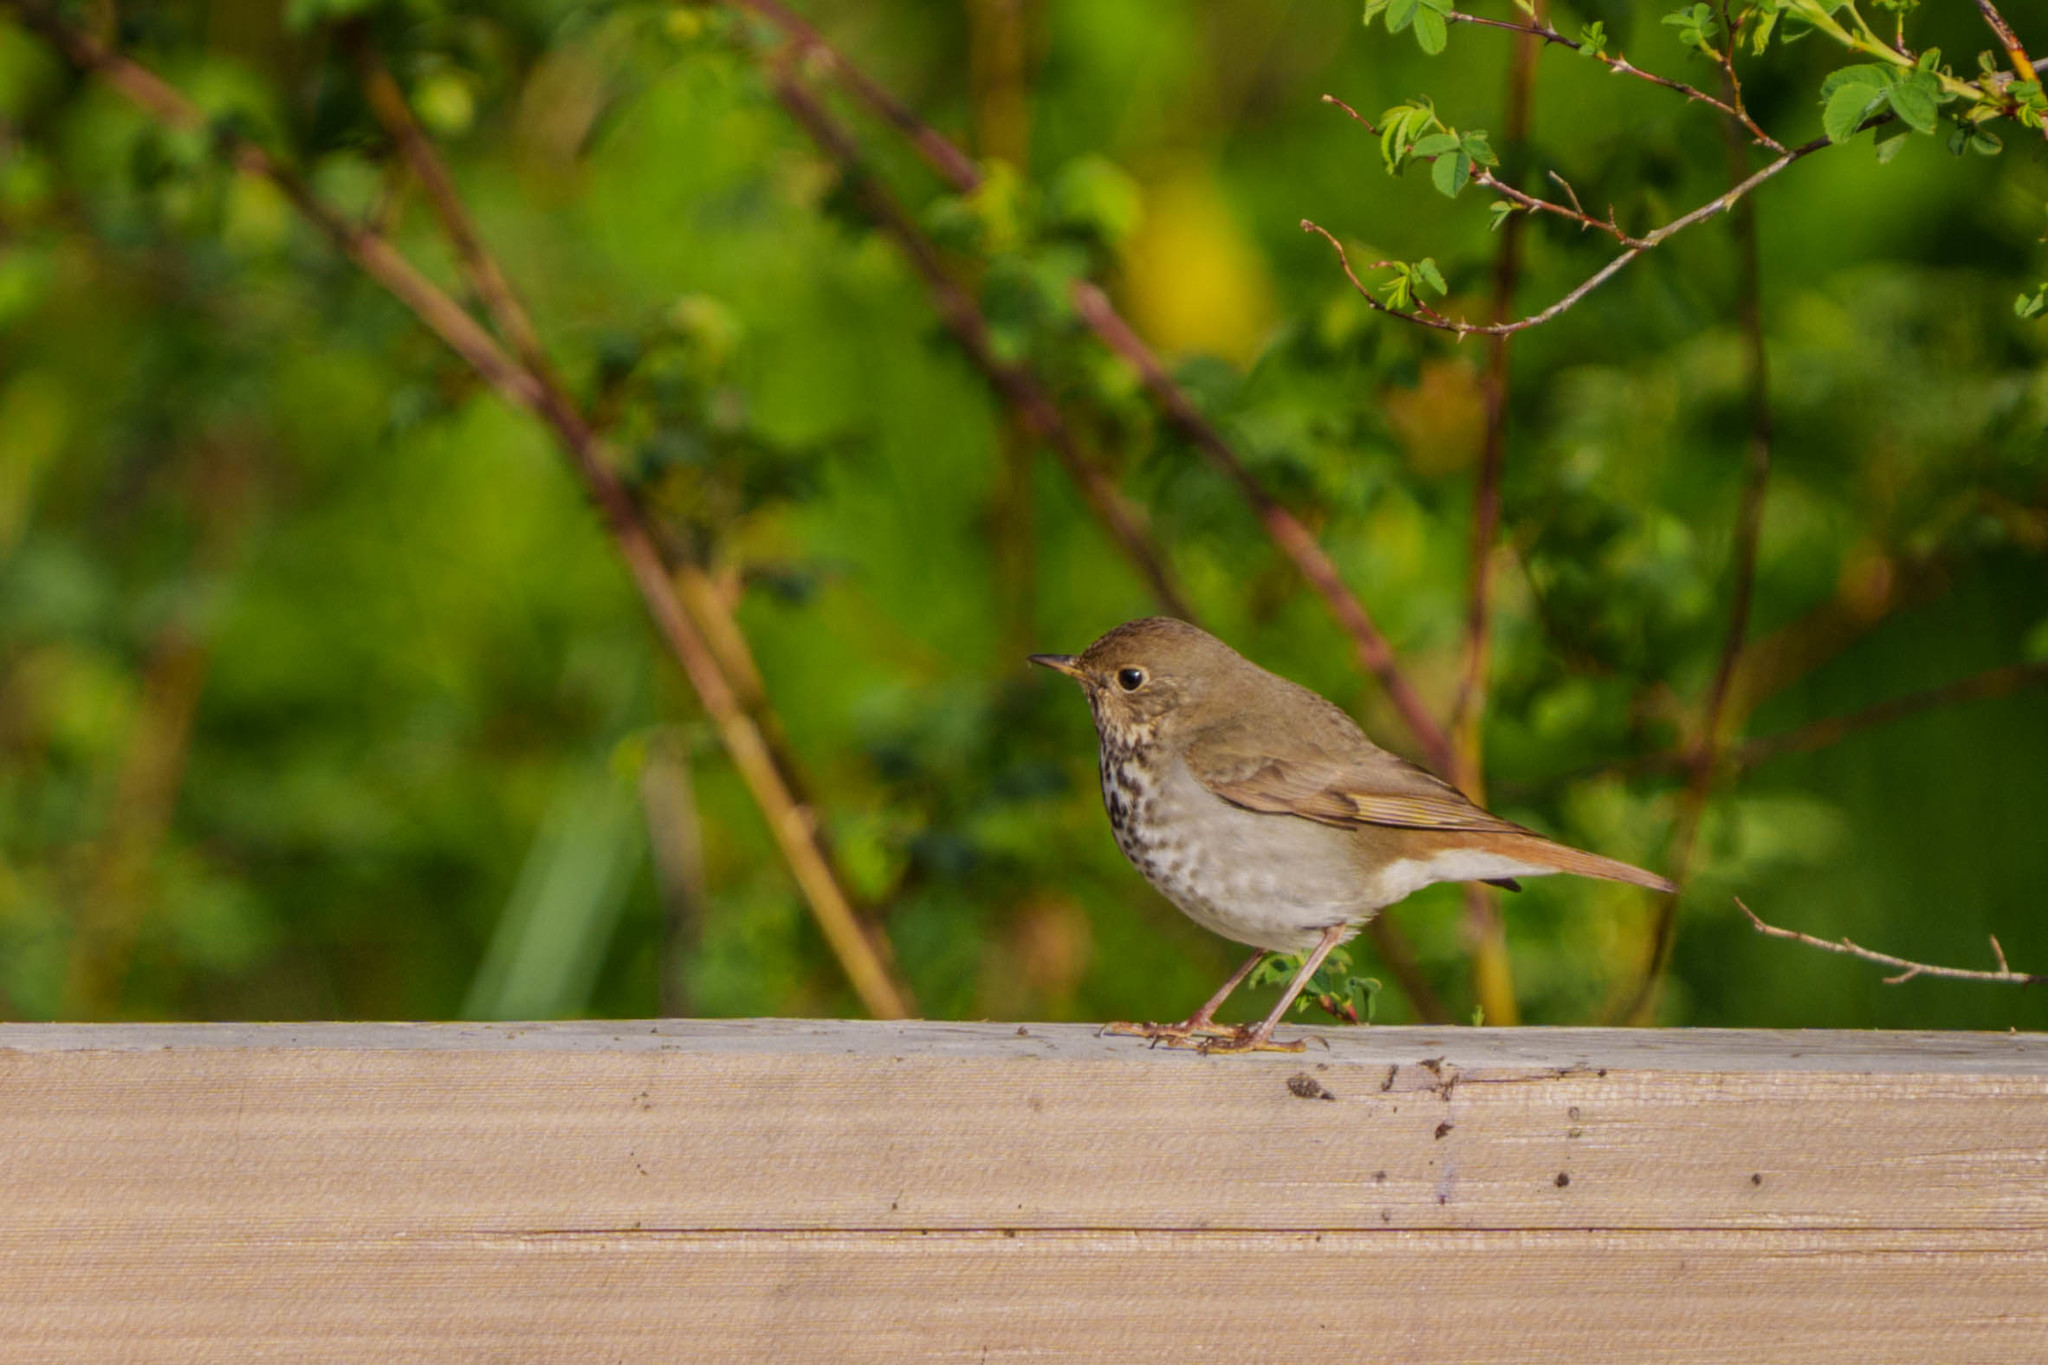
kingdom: Animalia
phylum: Chordata
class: Aves
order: Passeriformes
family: Turdidae
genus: Catharus
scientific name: Catharus guttatus
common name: Hermit thrush
